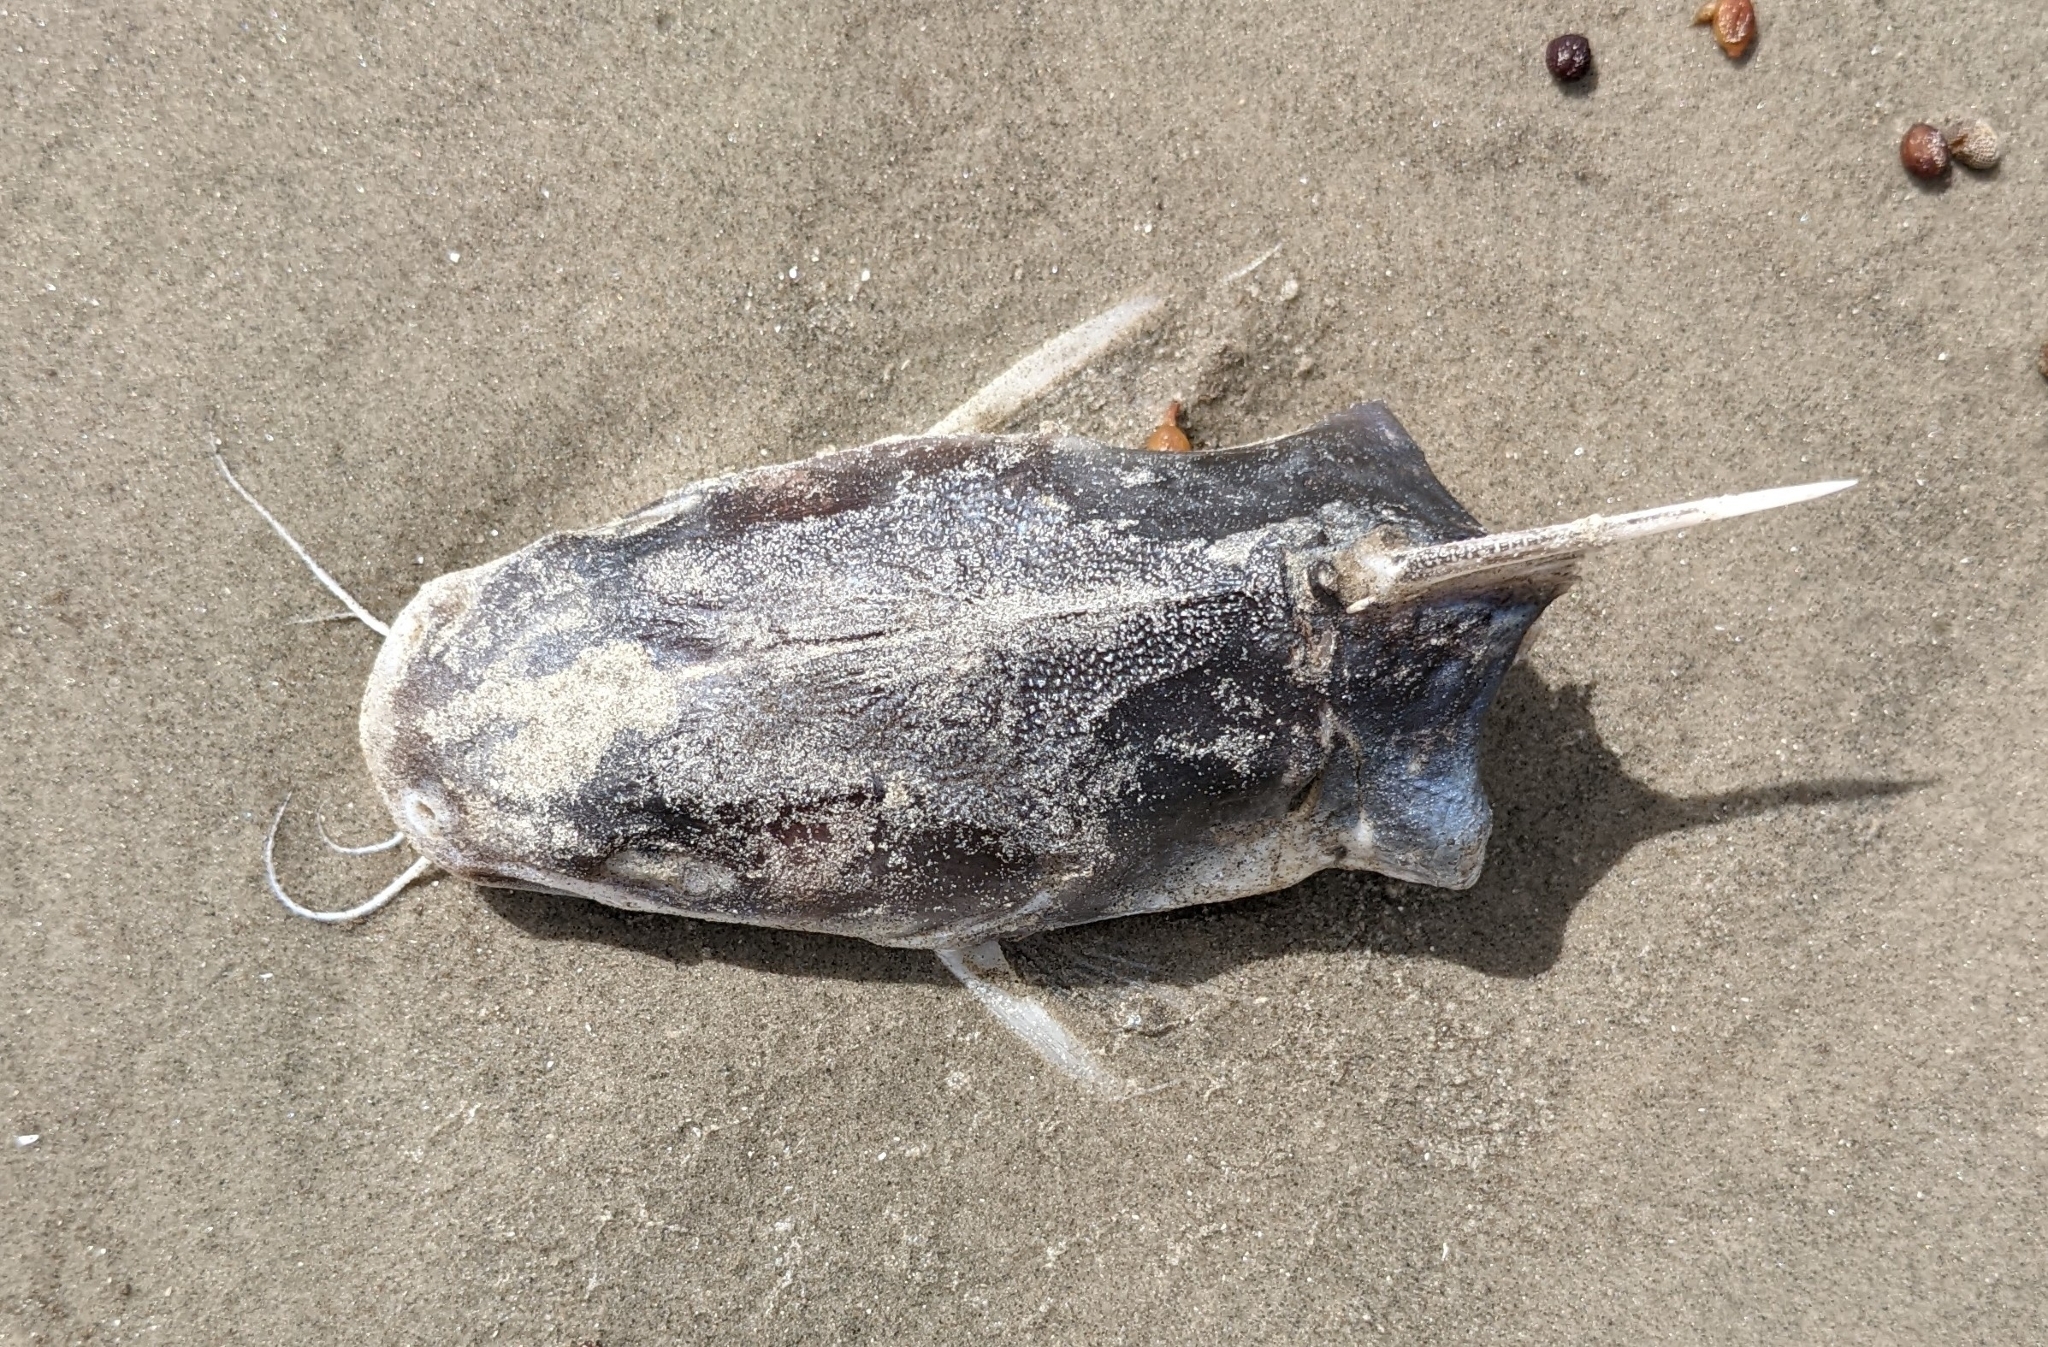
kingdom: Animalia
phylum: Chordata
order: Siluriformes
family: Ariidae
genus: Ariopsis
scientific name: Ariopsis felis
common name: Hardhead catfish
